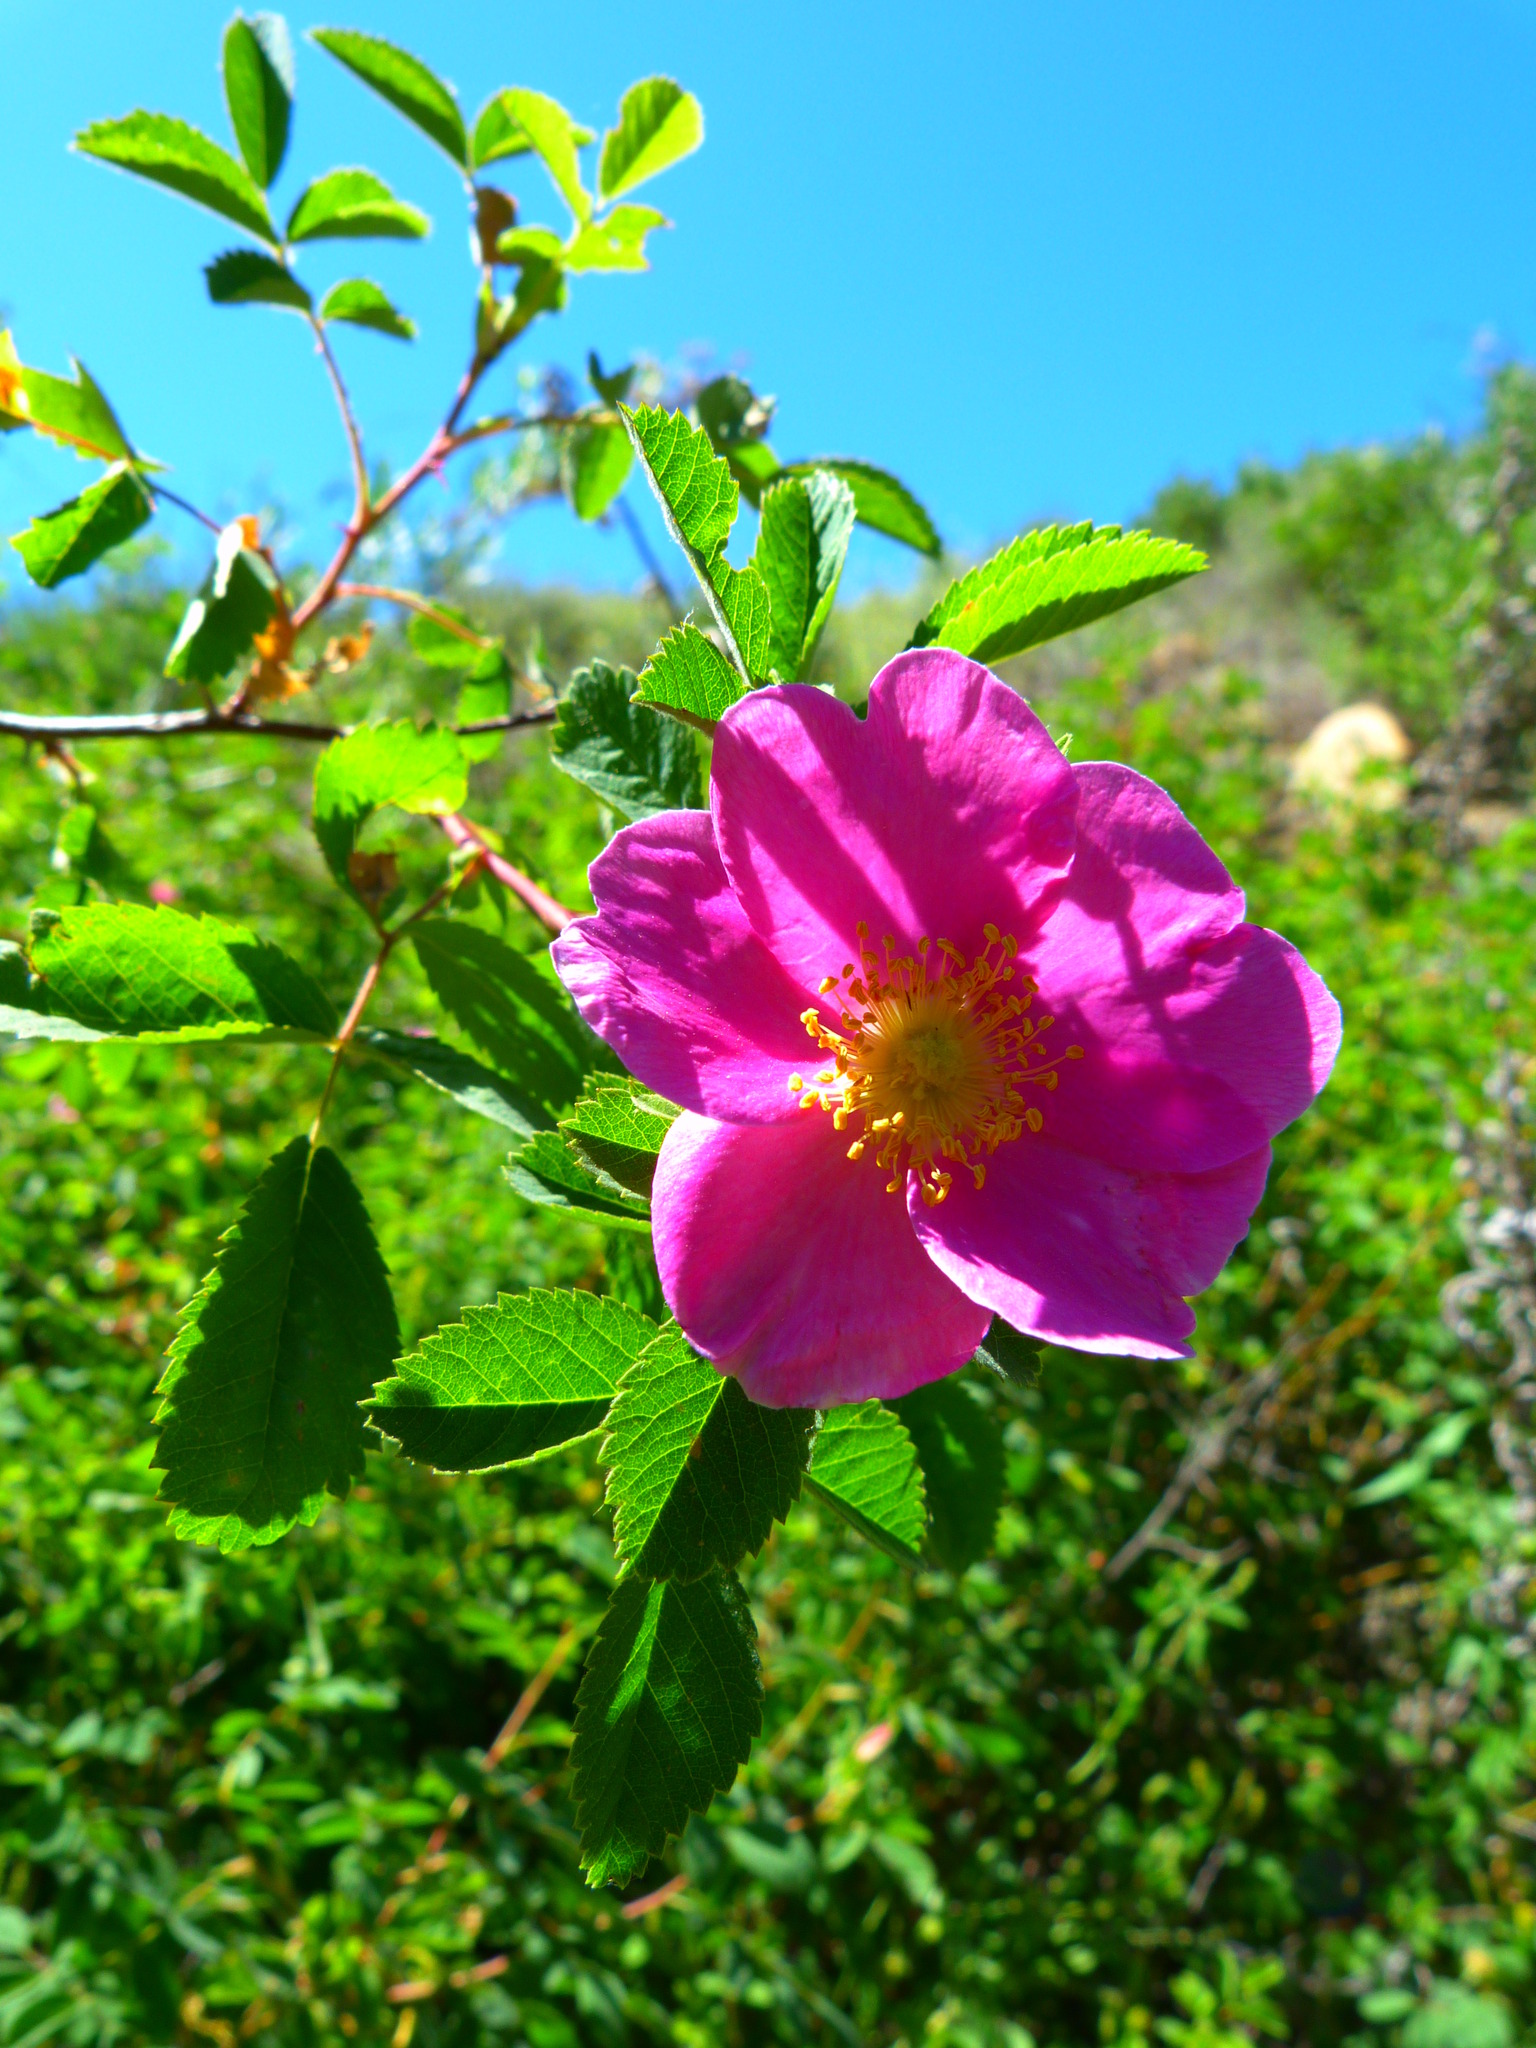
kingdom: Plantae
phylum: Tracheophyta
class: Magnoliopsida
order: Rosales
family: Rosaceae
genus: Rosa
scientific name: Rosa californica
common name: California rose
